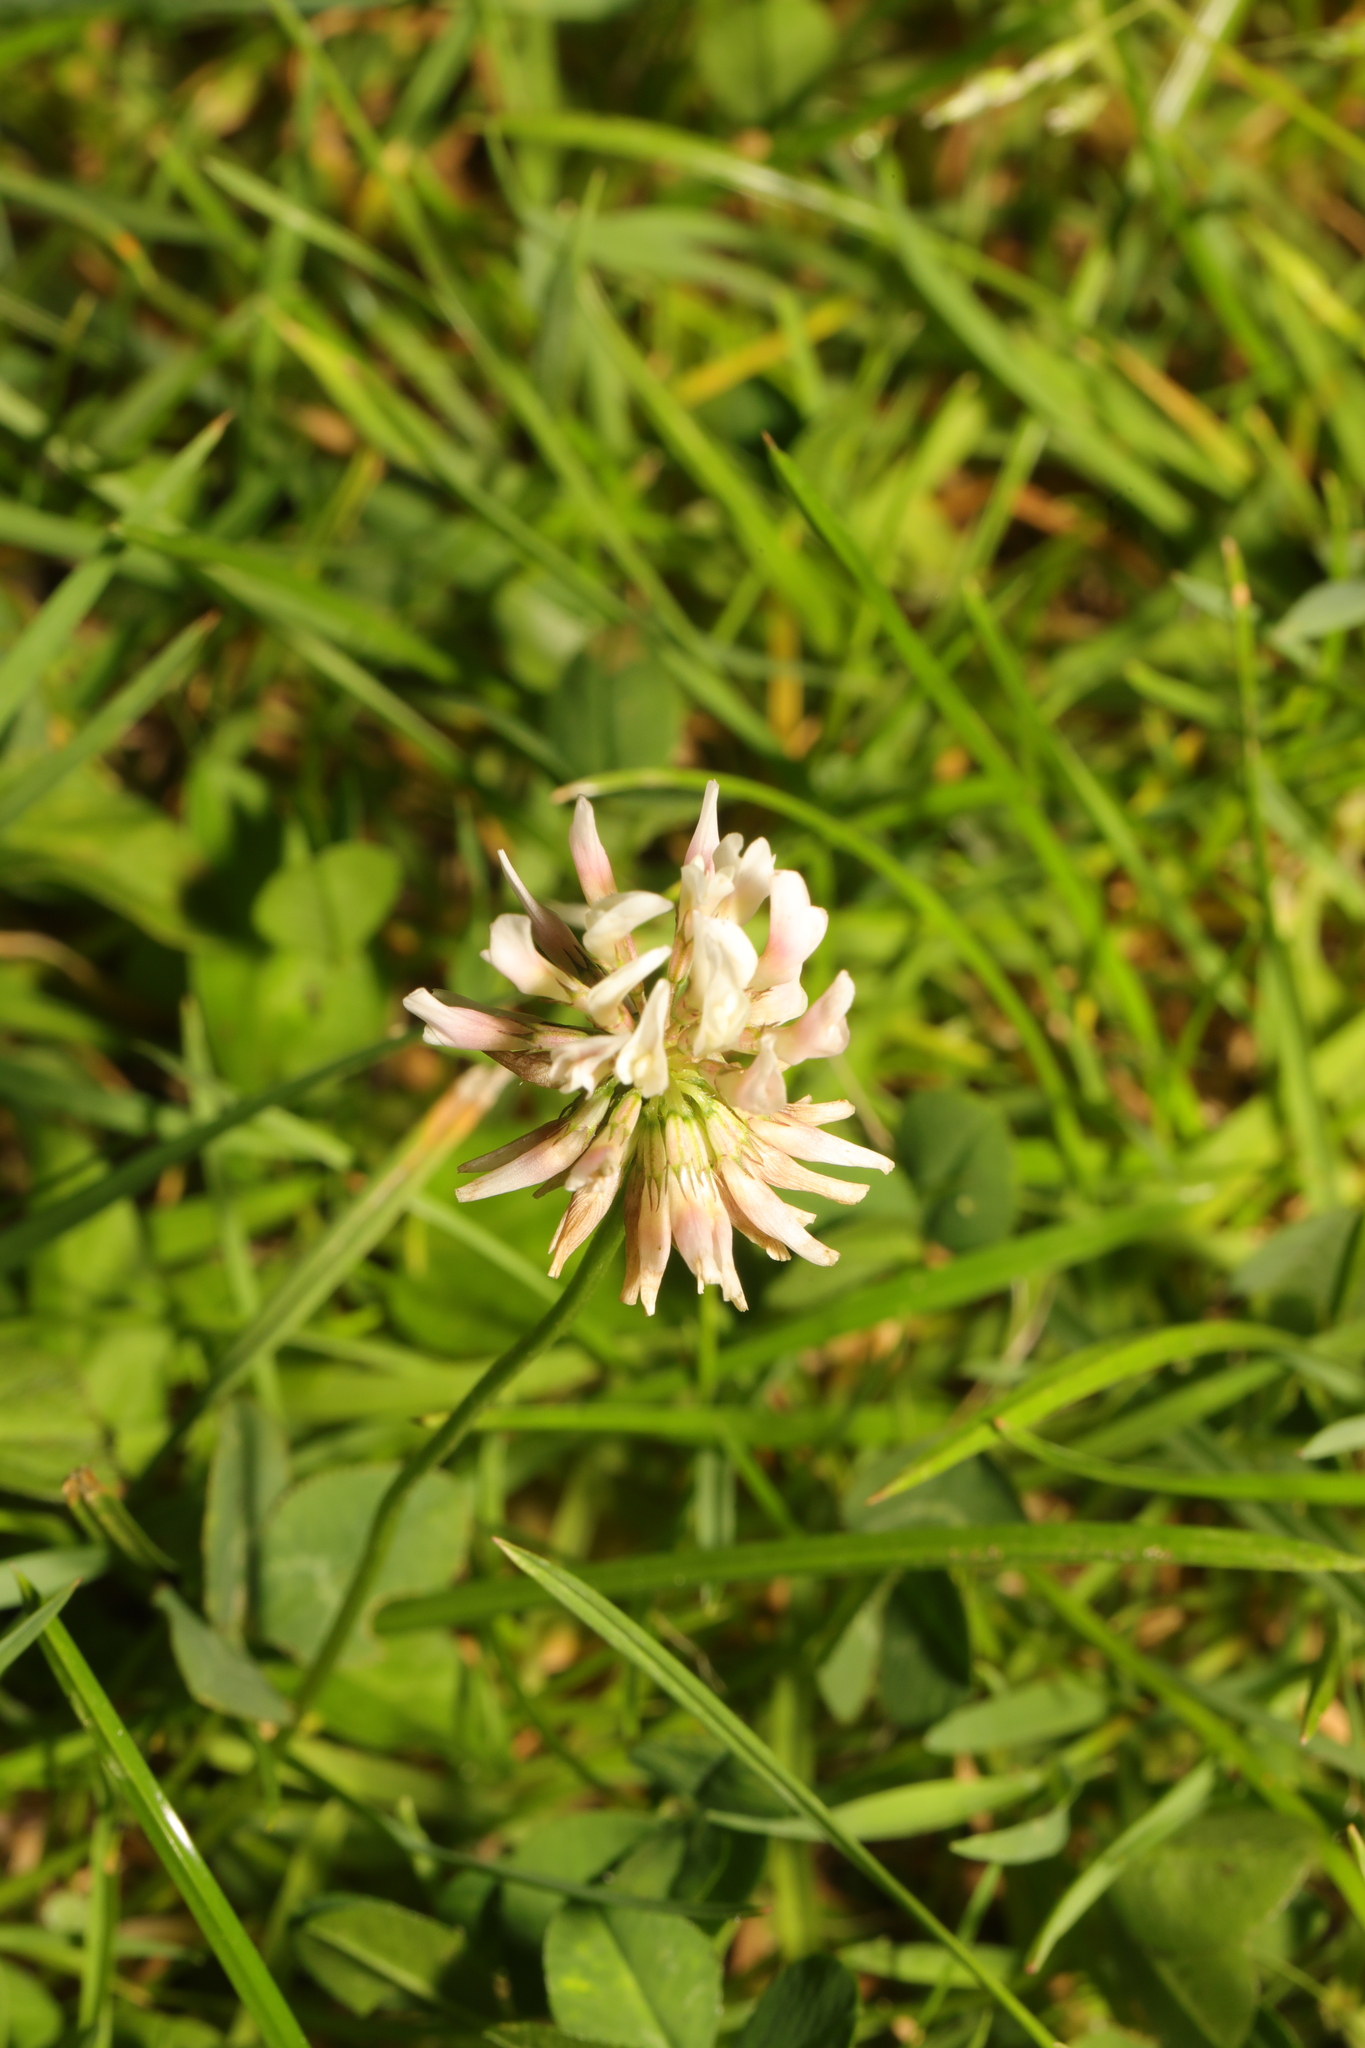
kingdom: Plantae
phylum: Tracheophyta
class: Magnoliopsida
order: Fabales
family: Fabaceae
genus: Trifolium
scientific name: Trifolium repens
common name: White clover
